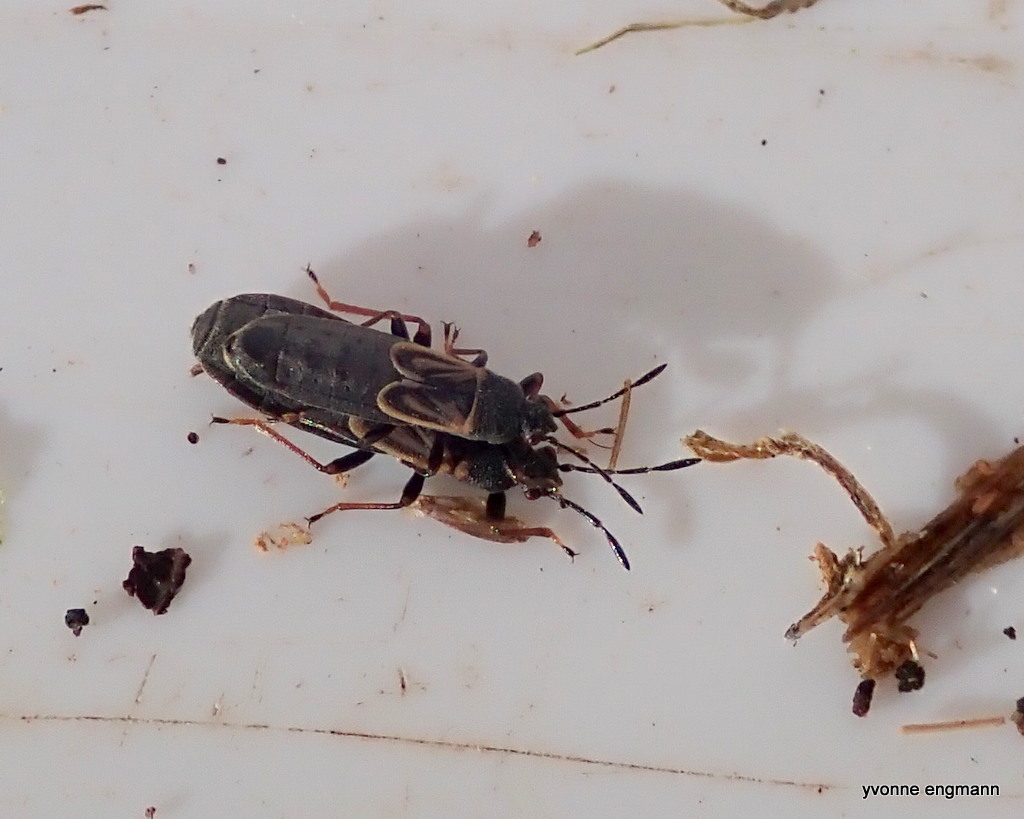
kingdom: Animalia
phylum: Arthropoda
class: Insecta
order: Hemiptera
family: Blissidae
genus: Ischnodemus
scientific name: Ischnodemus sabuleti
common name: European cinchbug
